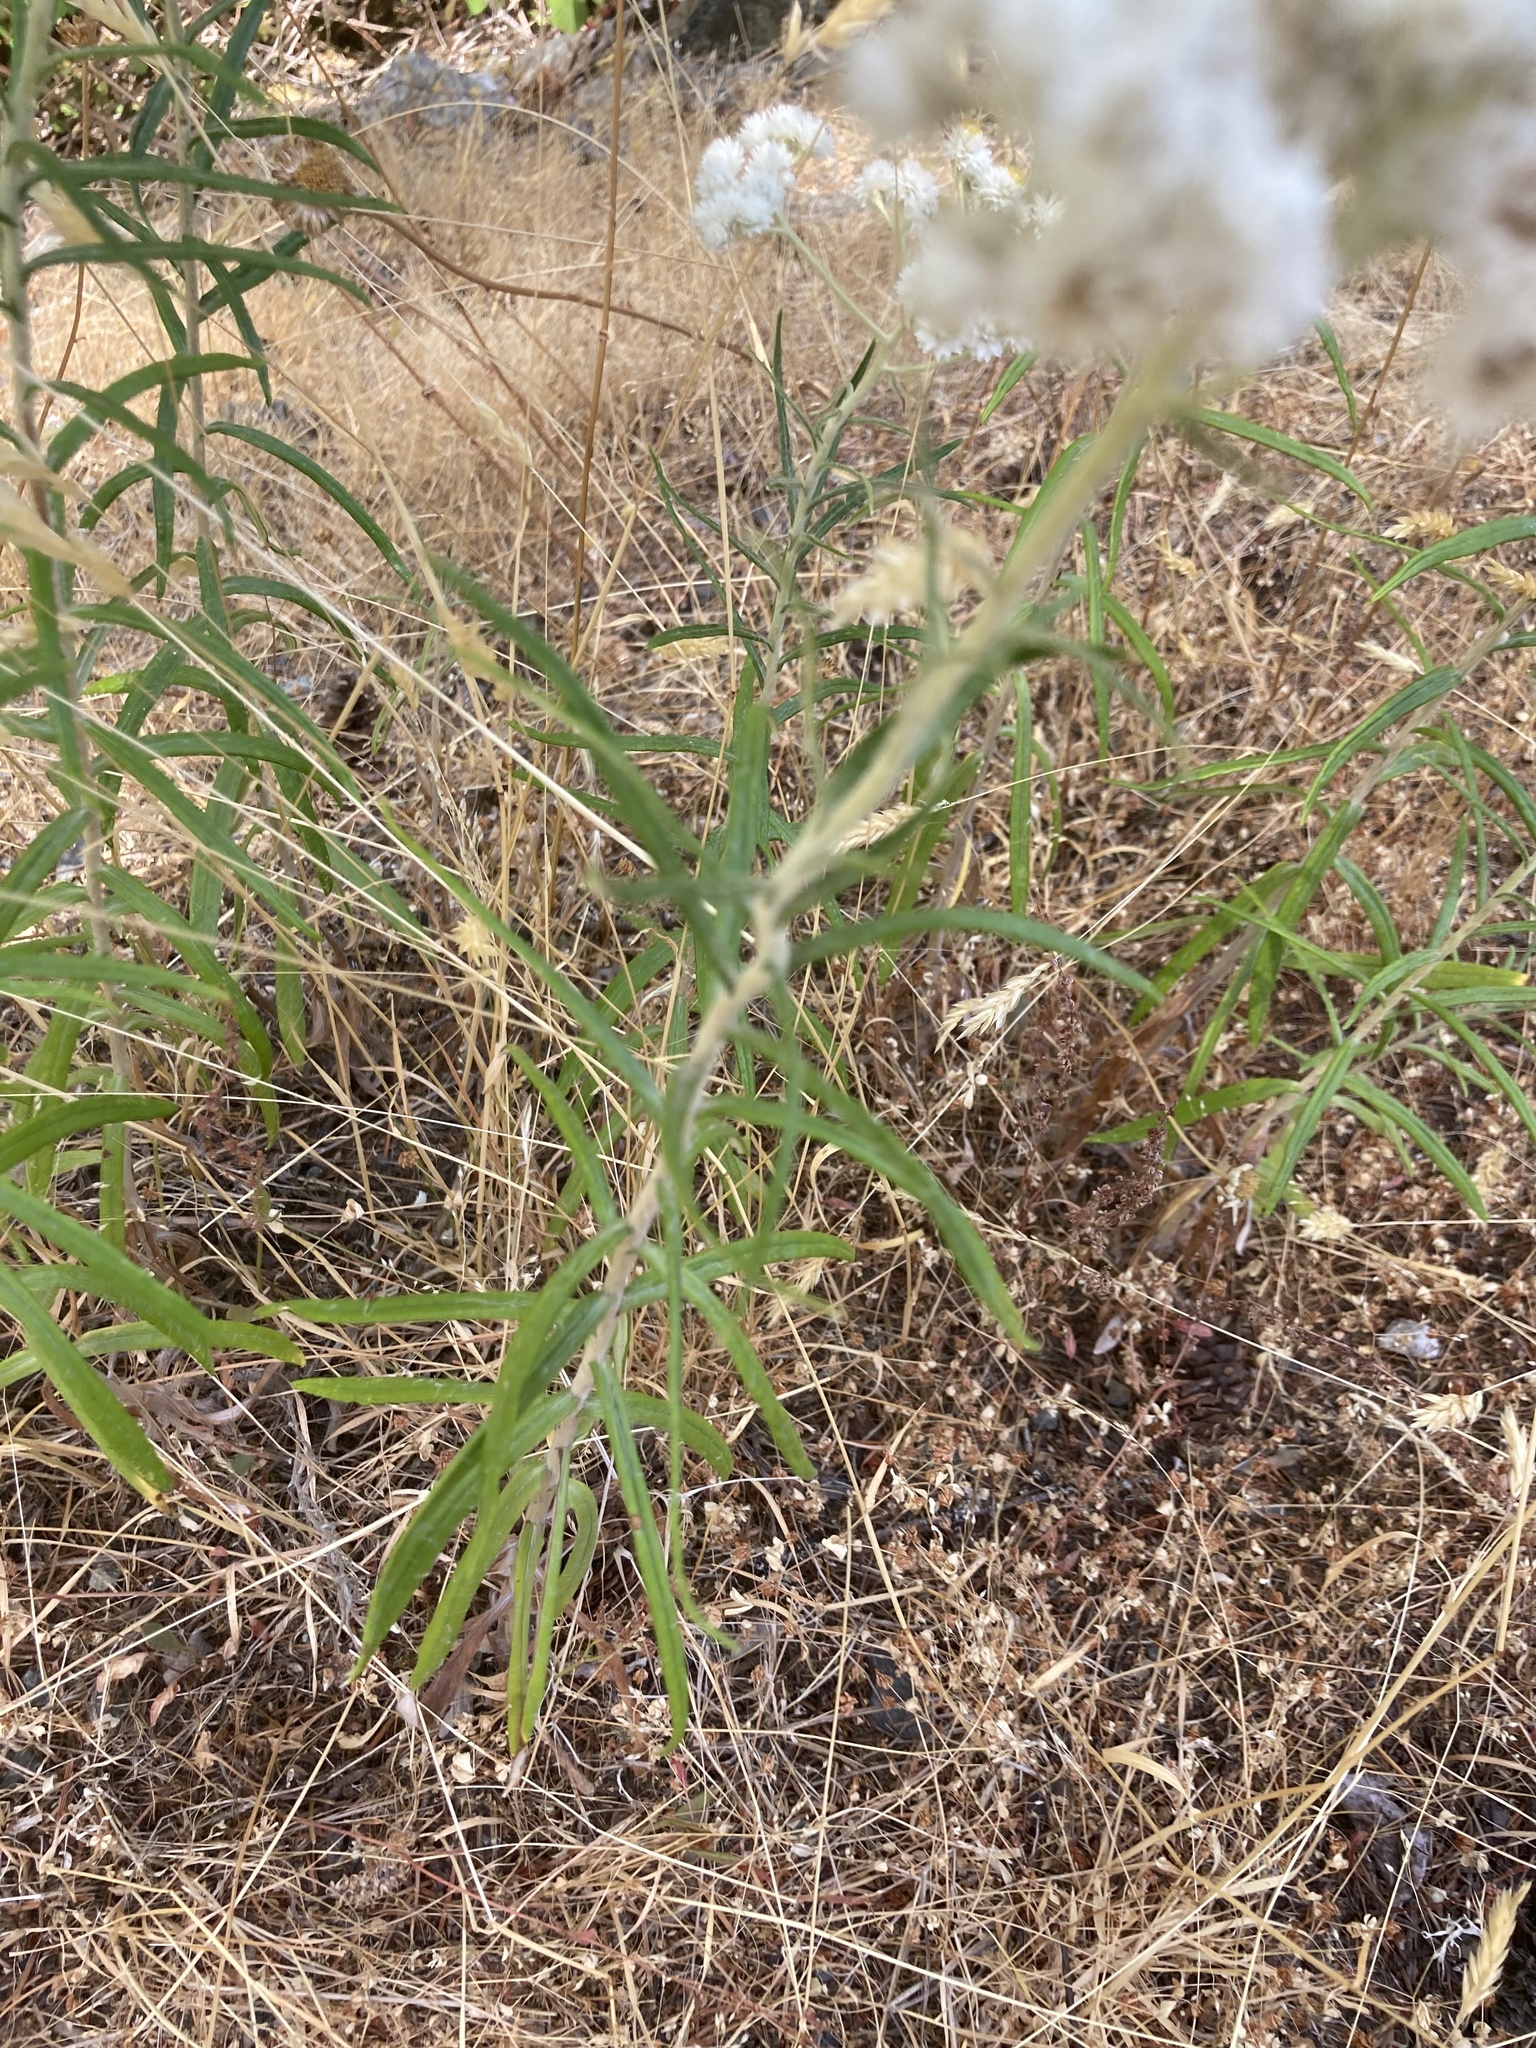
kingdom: Plantae
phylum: Tracheophyta
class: Magnoliopsida
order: Asterales
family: Asteraceae
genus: Anaphalis
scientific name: Anaphalis margaritacea
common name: Pearly everlasting
